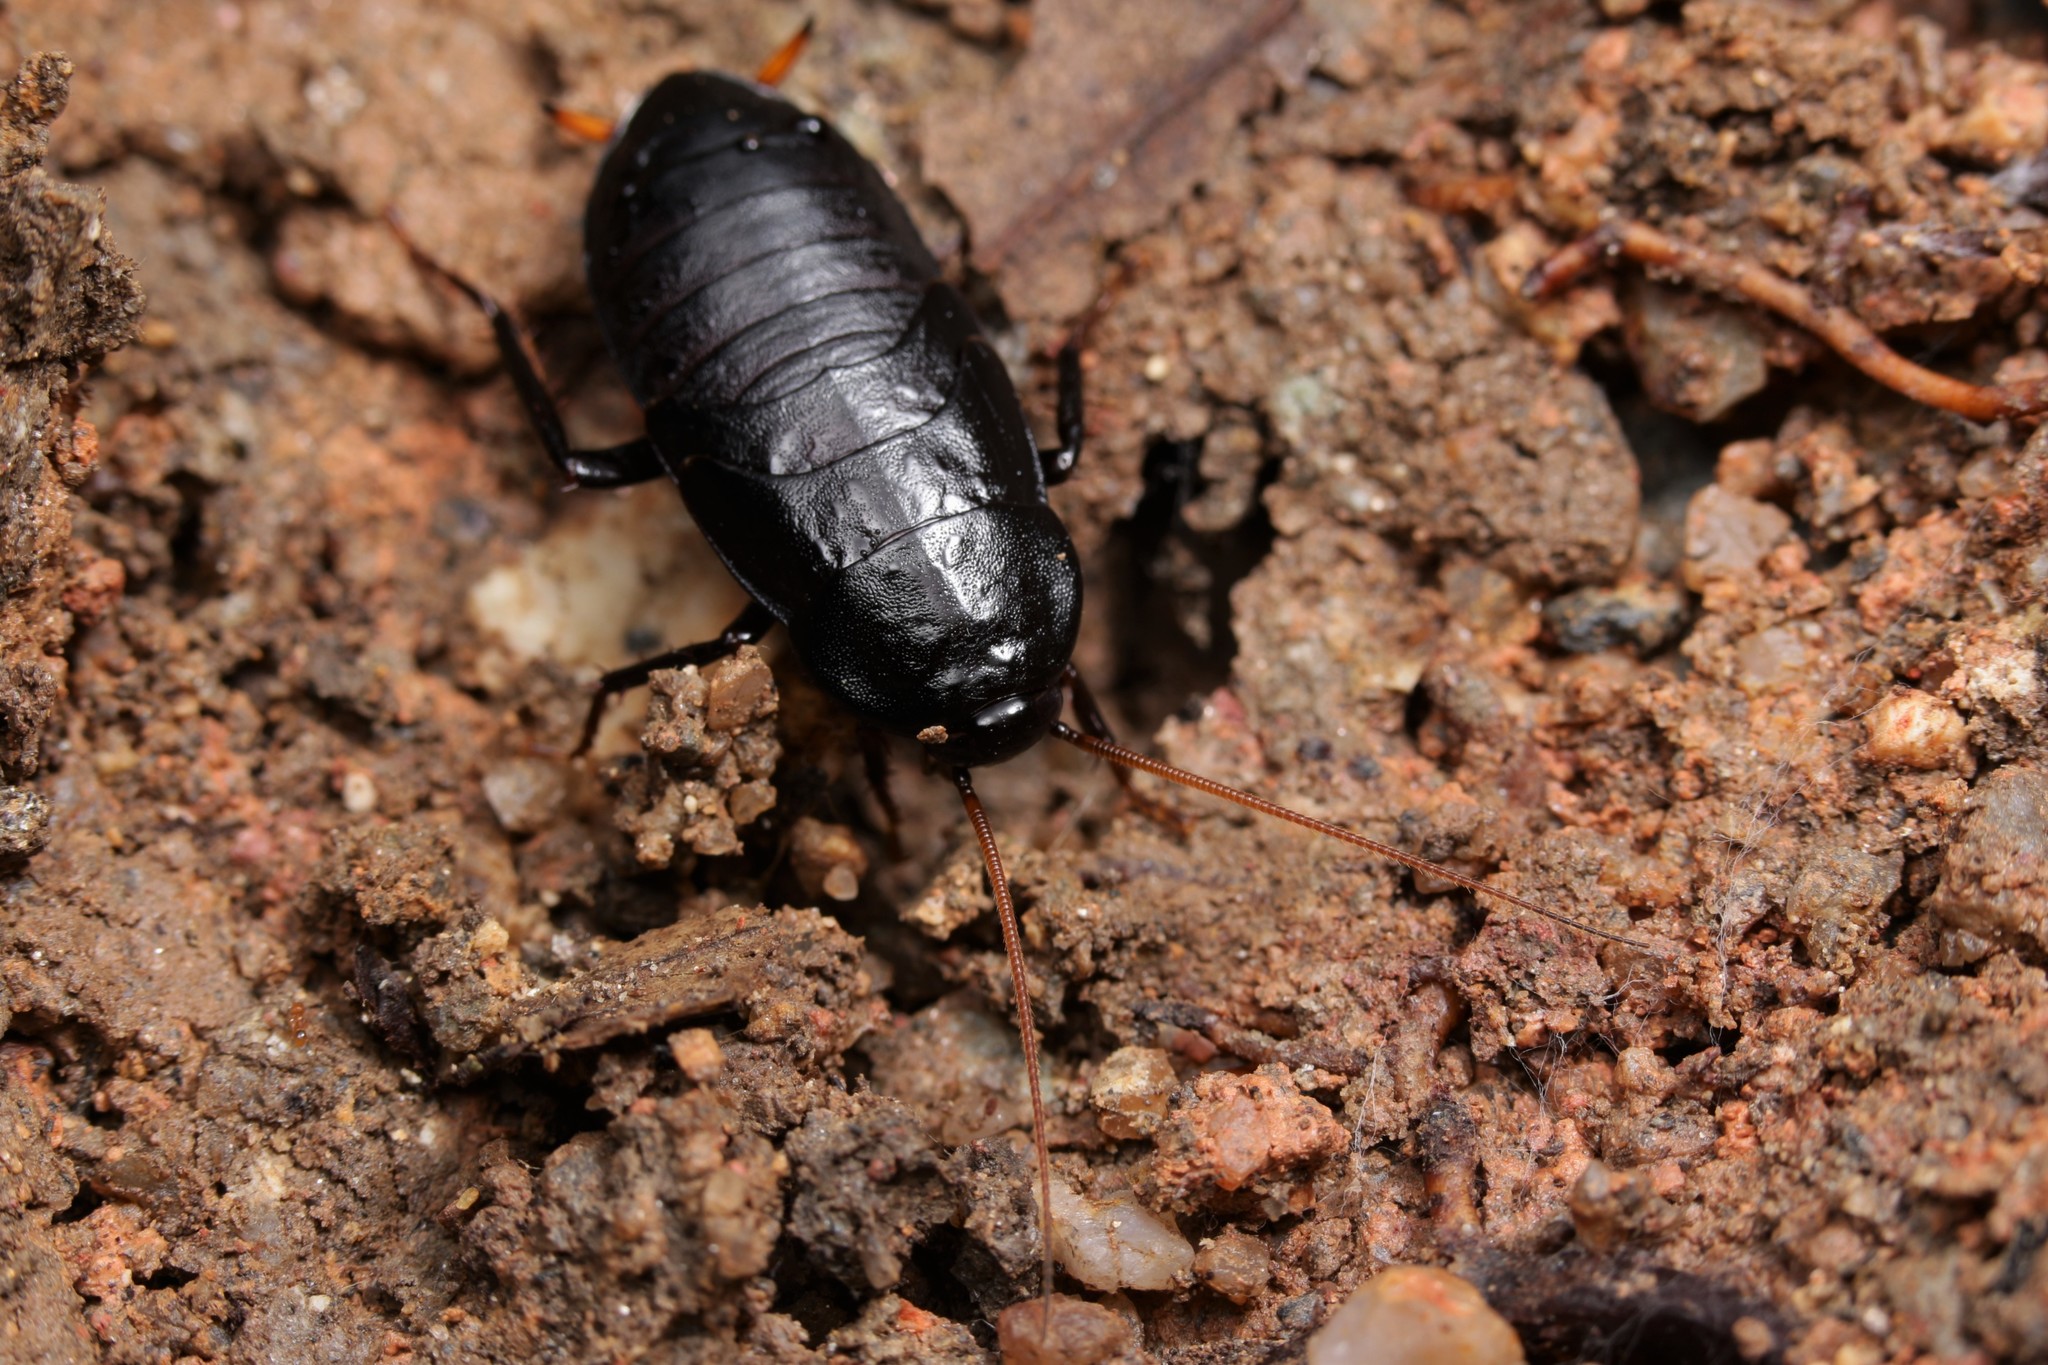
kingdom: Animalia
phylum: Arthropoda
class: Insecta
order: Blattodea
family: Blattidae
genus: Bundoksia
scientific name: Bundoksia longissima
